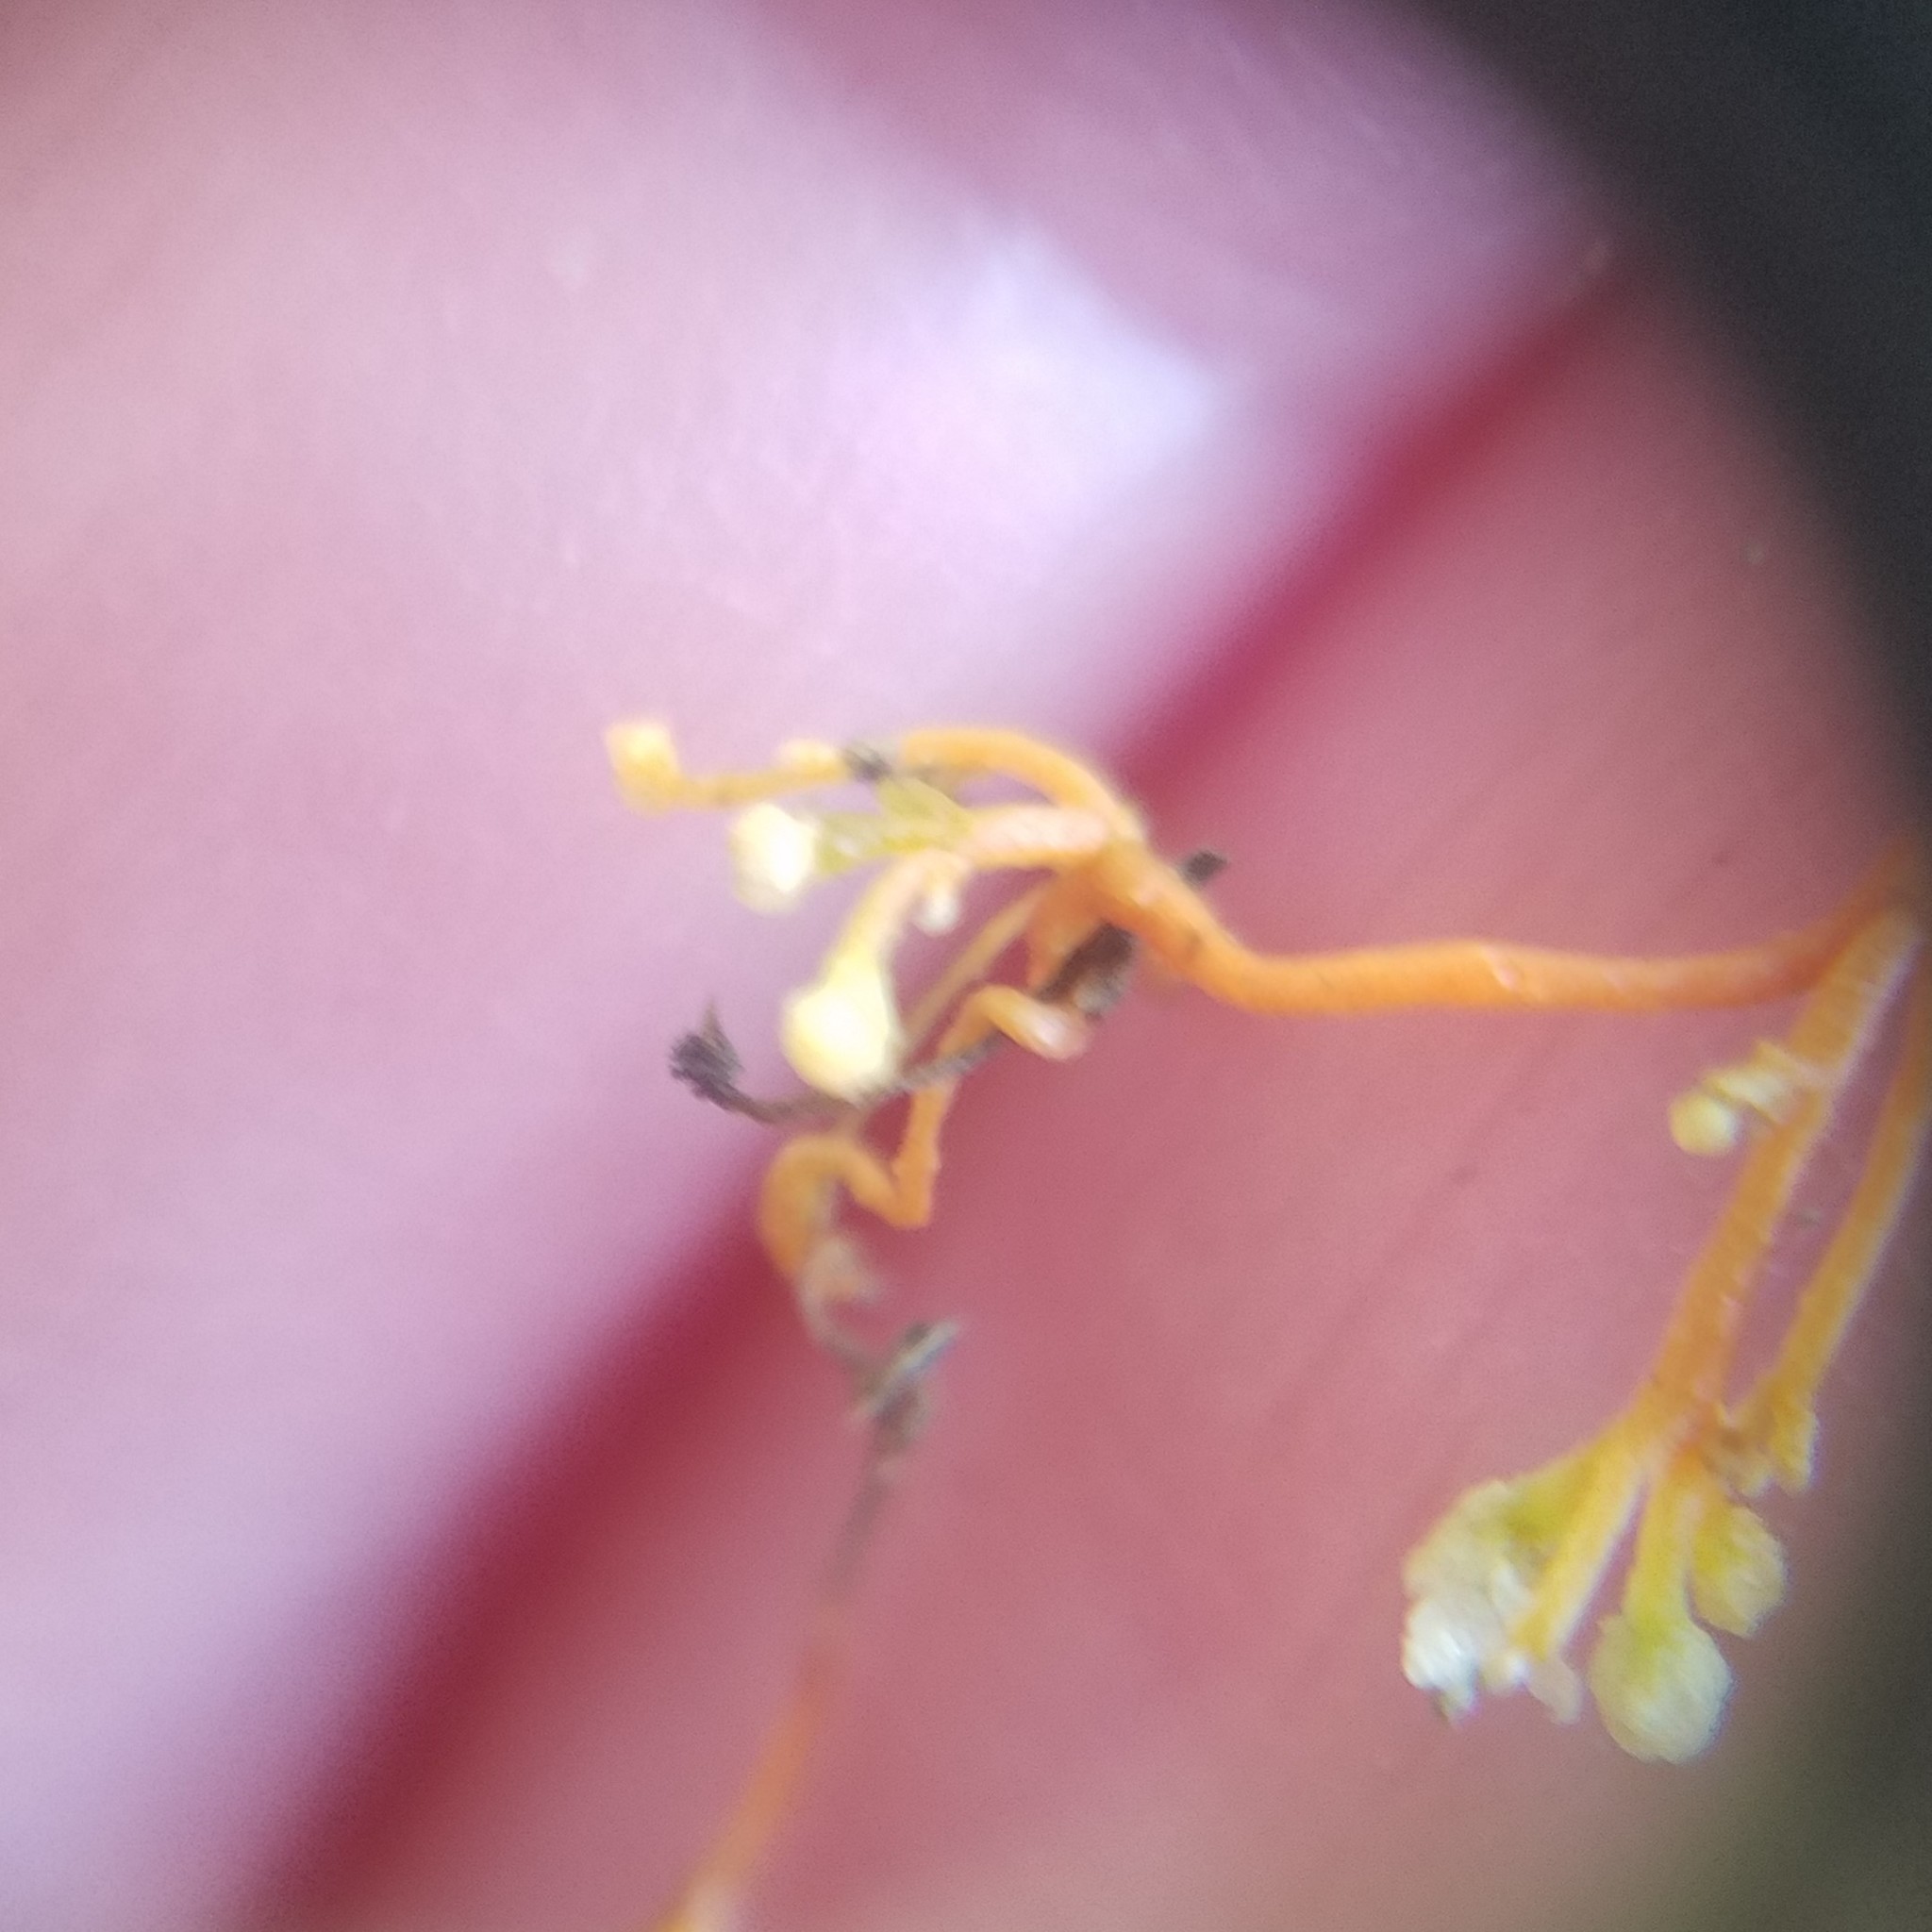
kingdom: Plantae
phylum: Tracheophyta
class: Magnoliopsida
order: Solanales
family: Convolvulaceae
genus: Cuscuta
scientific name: Cuscuta harperi
